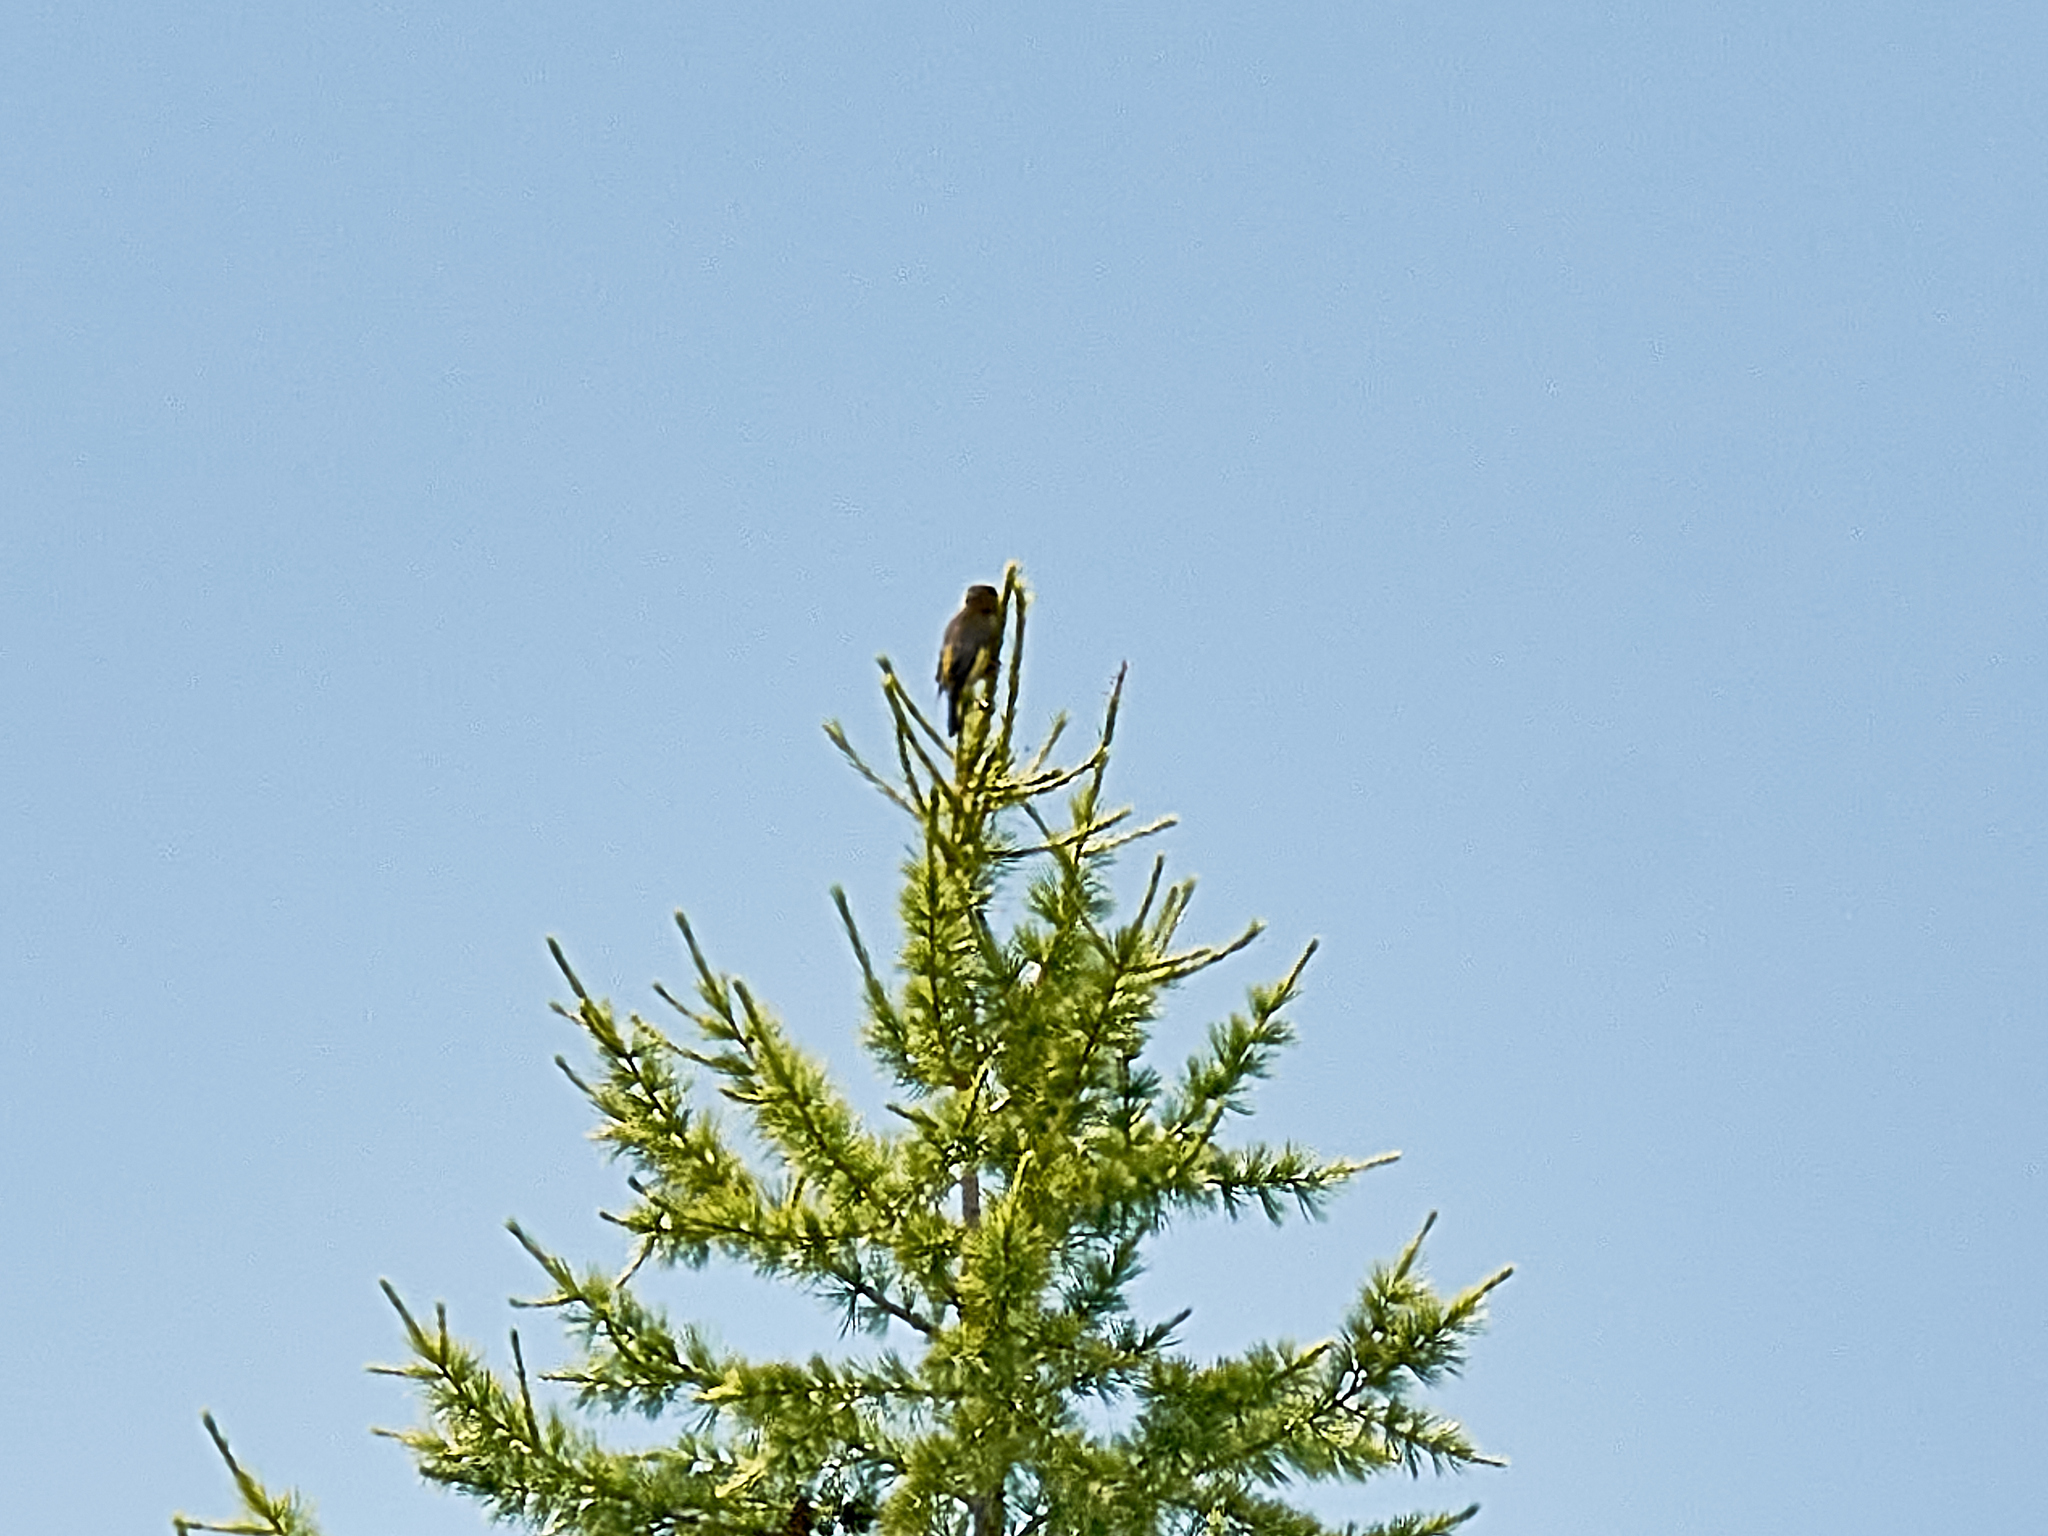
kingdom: Plantae
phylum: Tracheophyta
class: Liliopsida
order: Poales
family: Poaceae
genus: Chloris
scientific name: Chloris chloris
